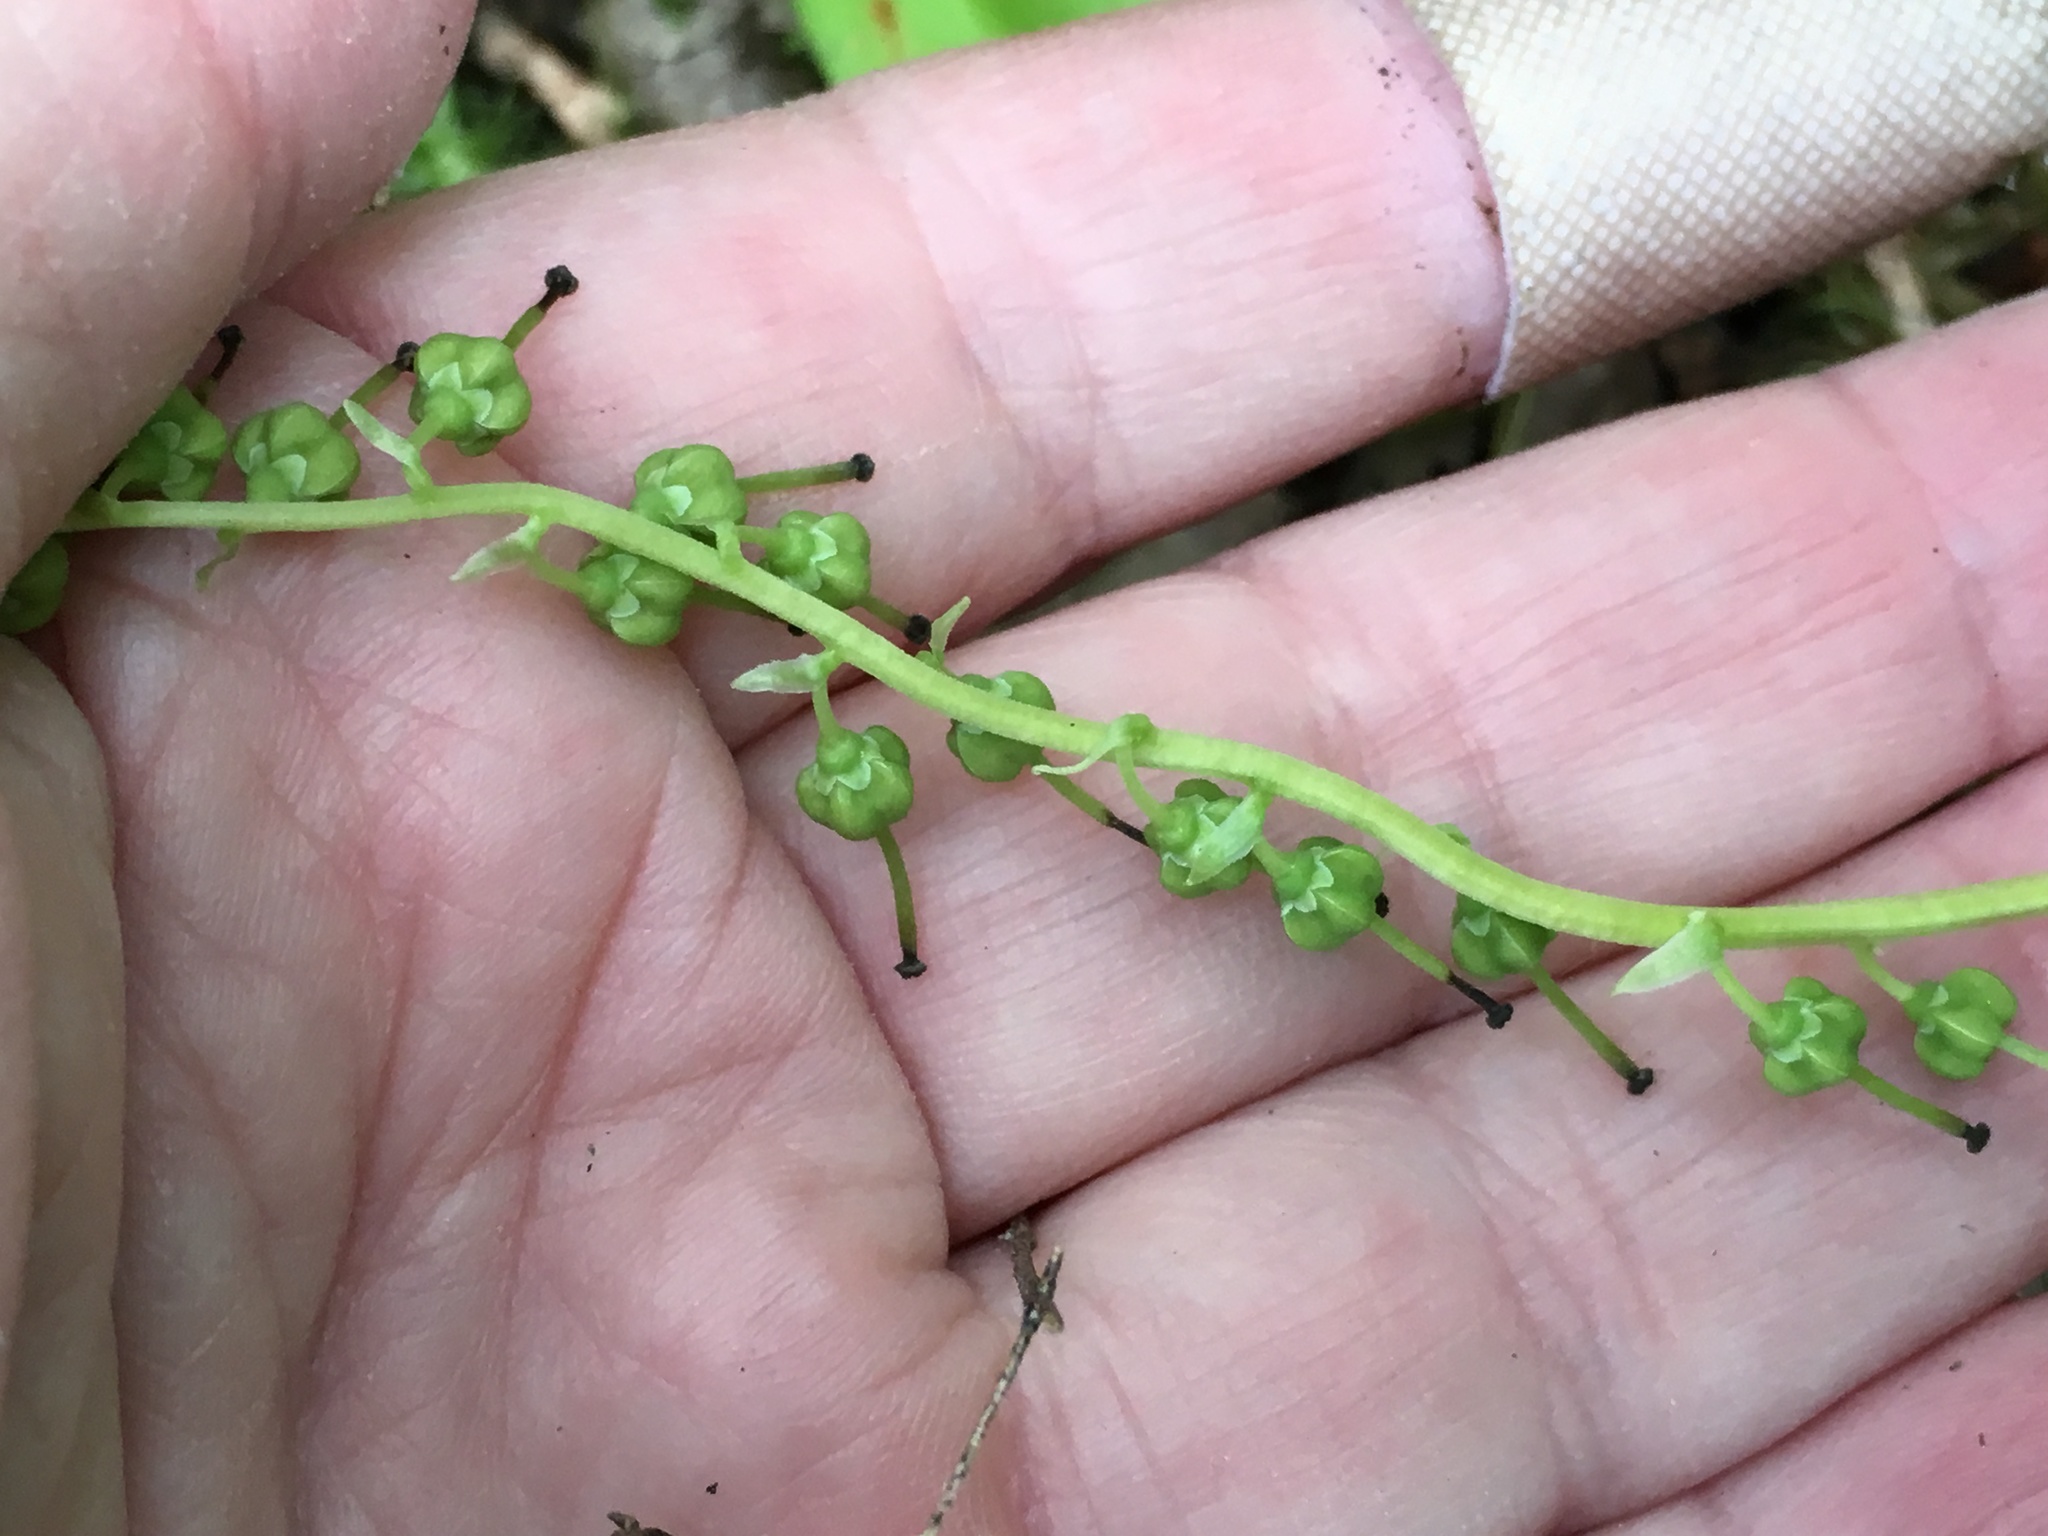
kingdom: Plantae
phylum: Tracheophyta
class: Magnoliopsida
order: Ericales
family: Ericaceae
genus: Orthilia
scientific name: Orthilia secunda
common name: One-sided orthilia
